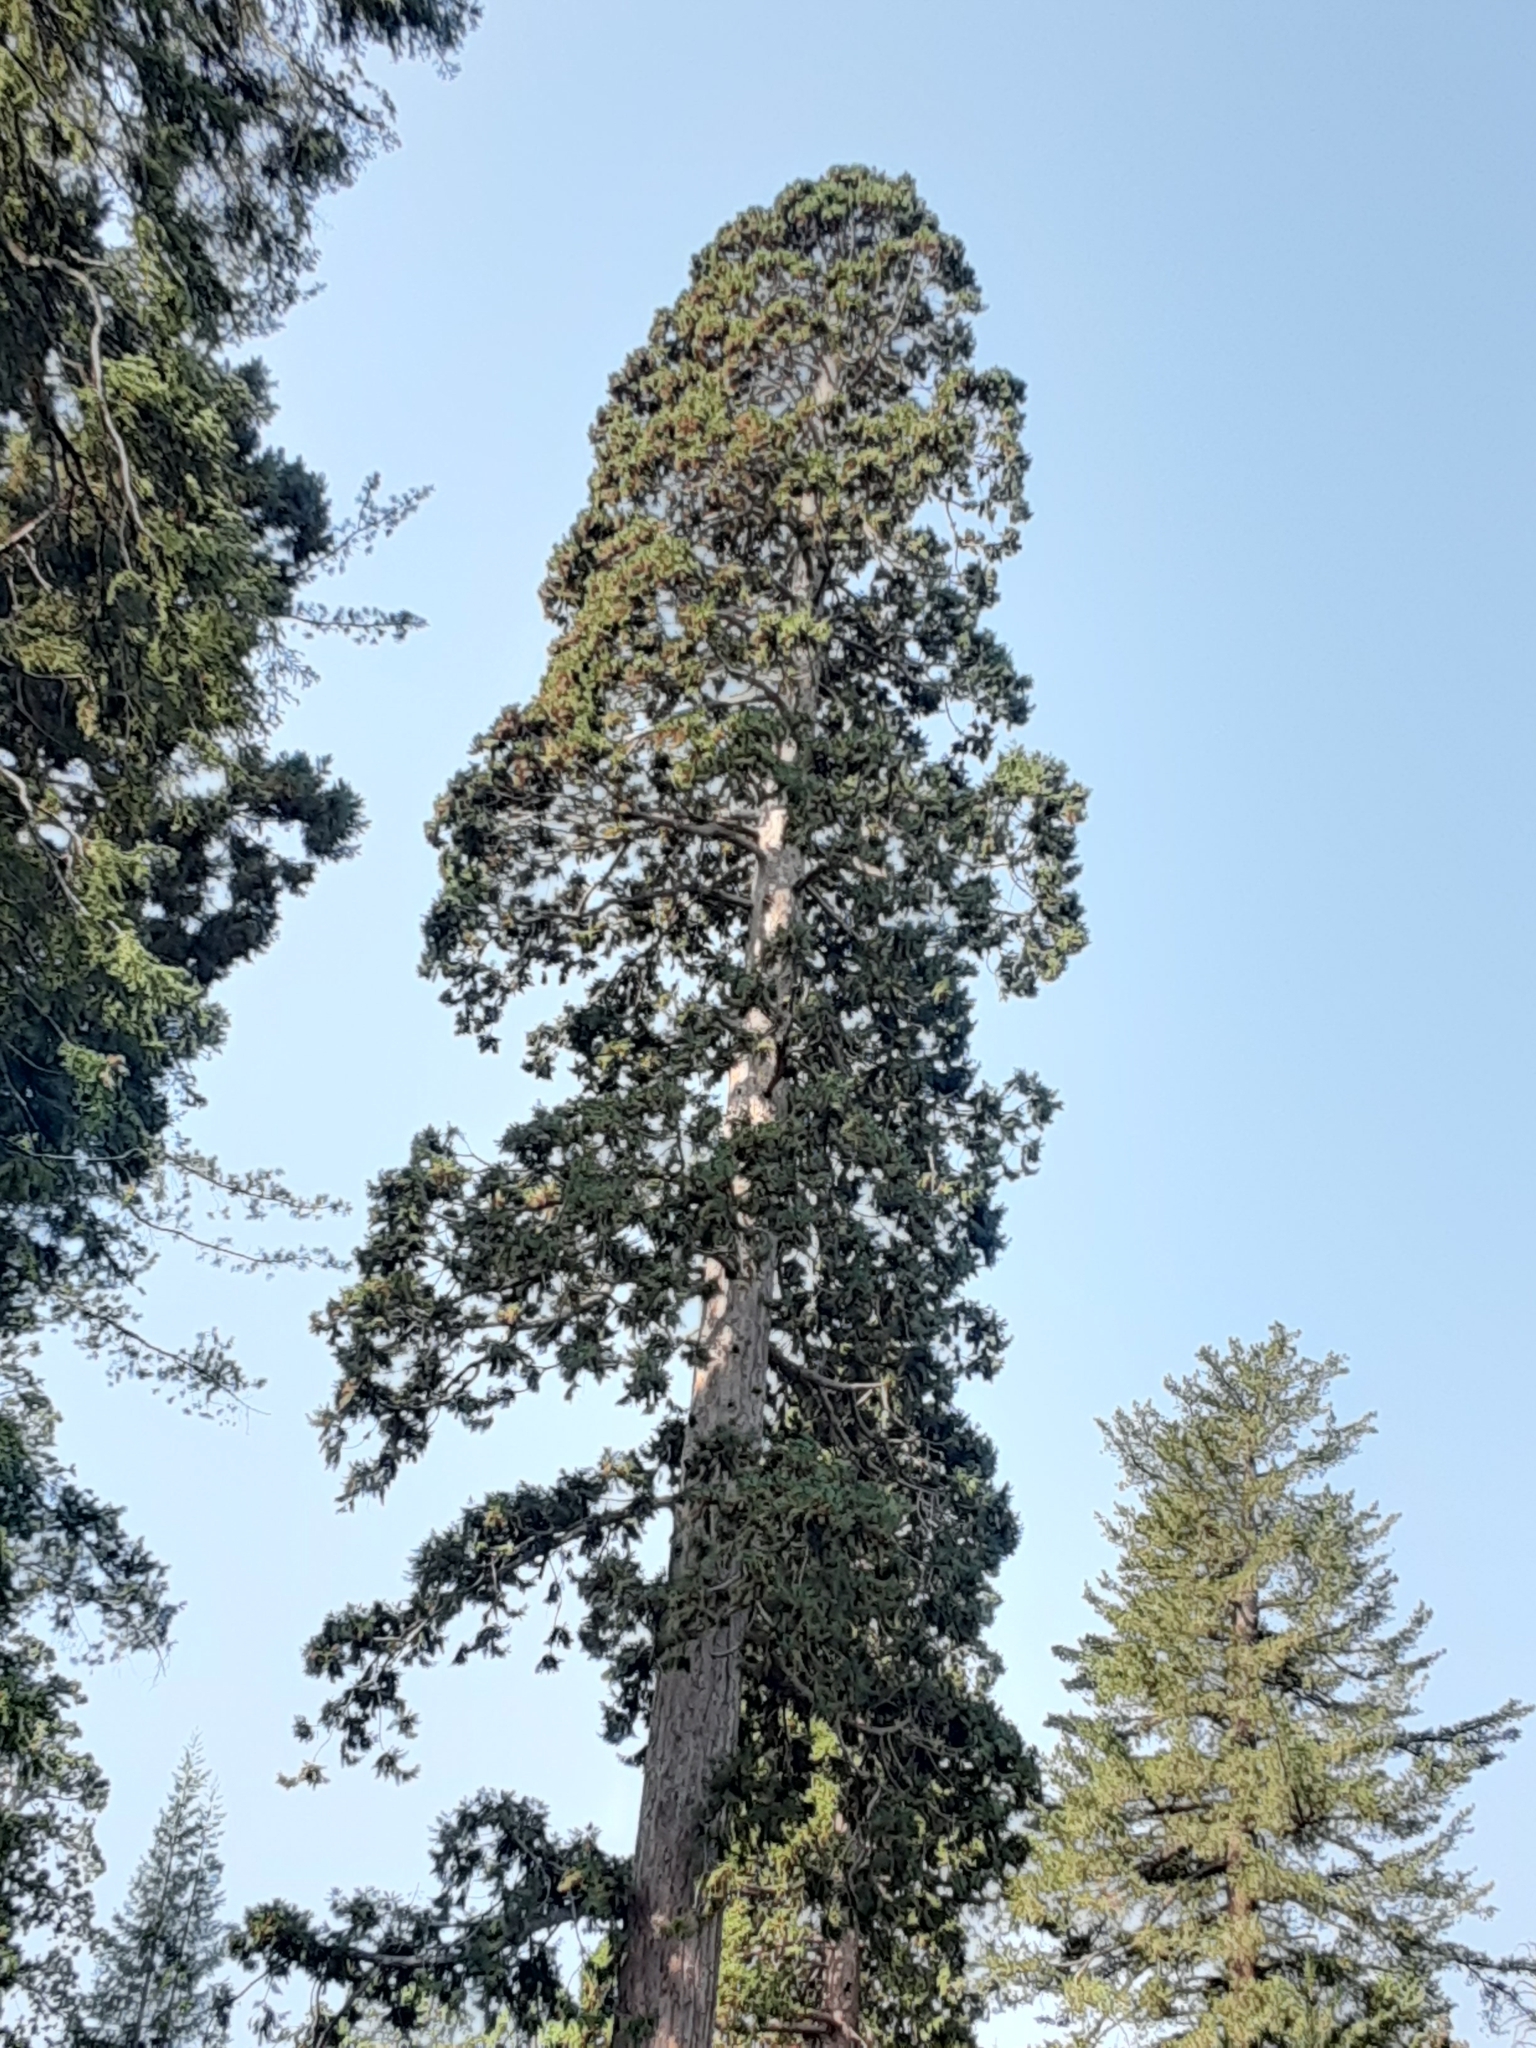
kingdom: Plantae
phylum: Tracheophyta
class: Pinopsida
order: Pinales
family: Cupressaceae
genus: Sequoiadendron
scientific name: Sequoiadendron giganteum
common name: Wellingtonia
